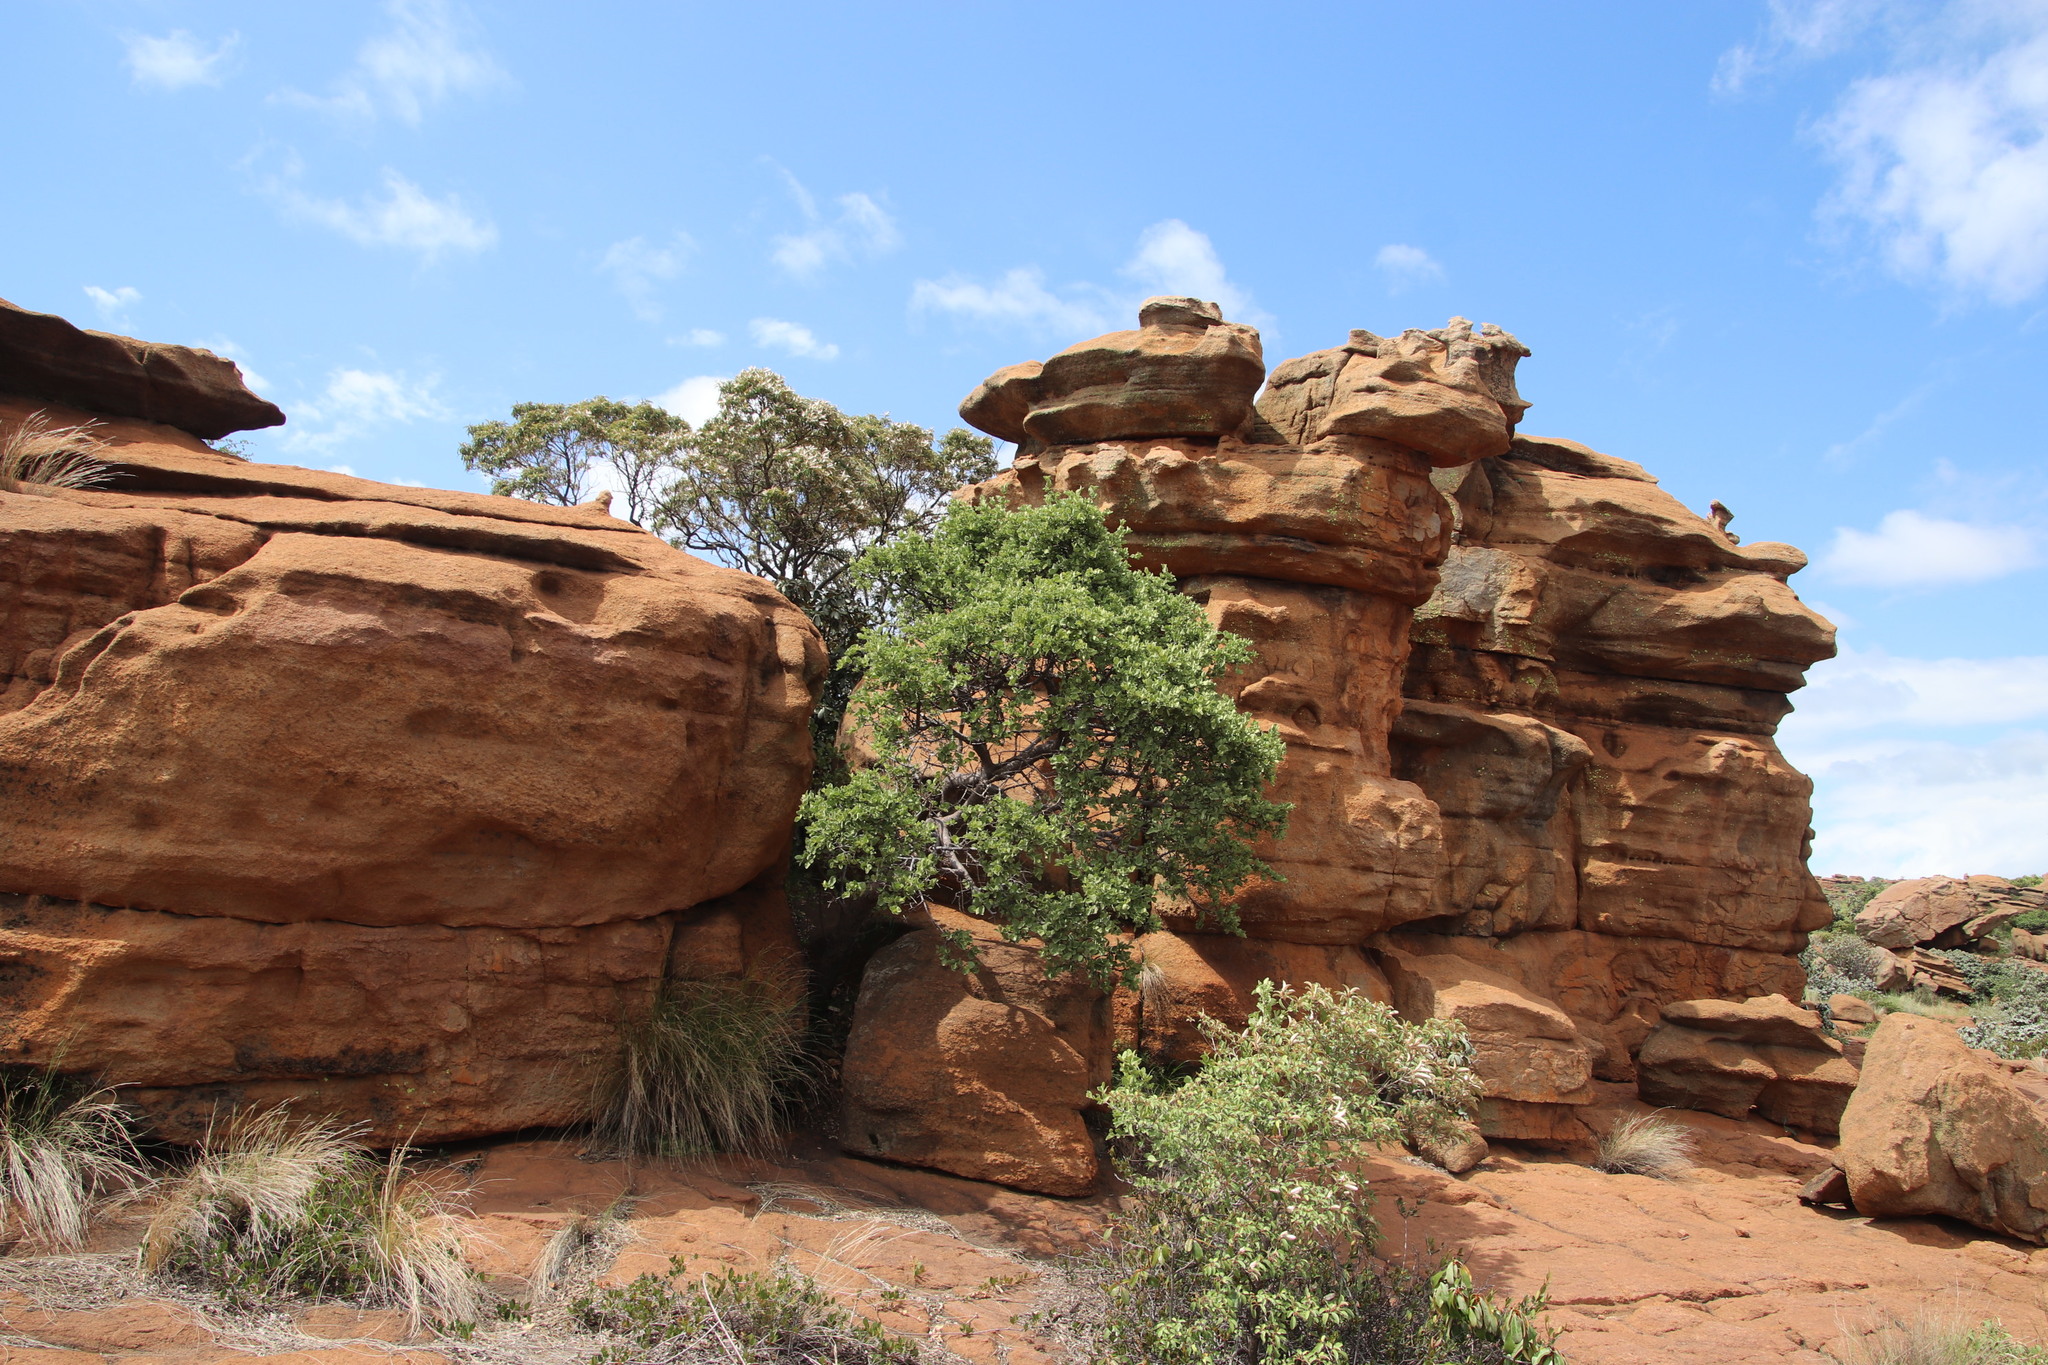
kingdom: Plantae
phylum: Tracheophyta
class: Magnoliopsida
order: Gentianales
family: Rubiaceae
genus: Vangueria
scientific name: Vangueria parvifolia
